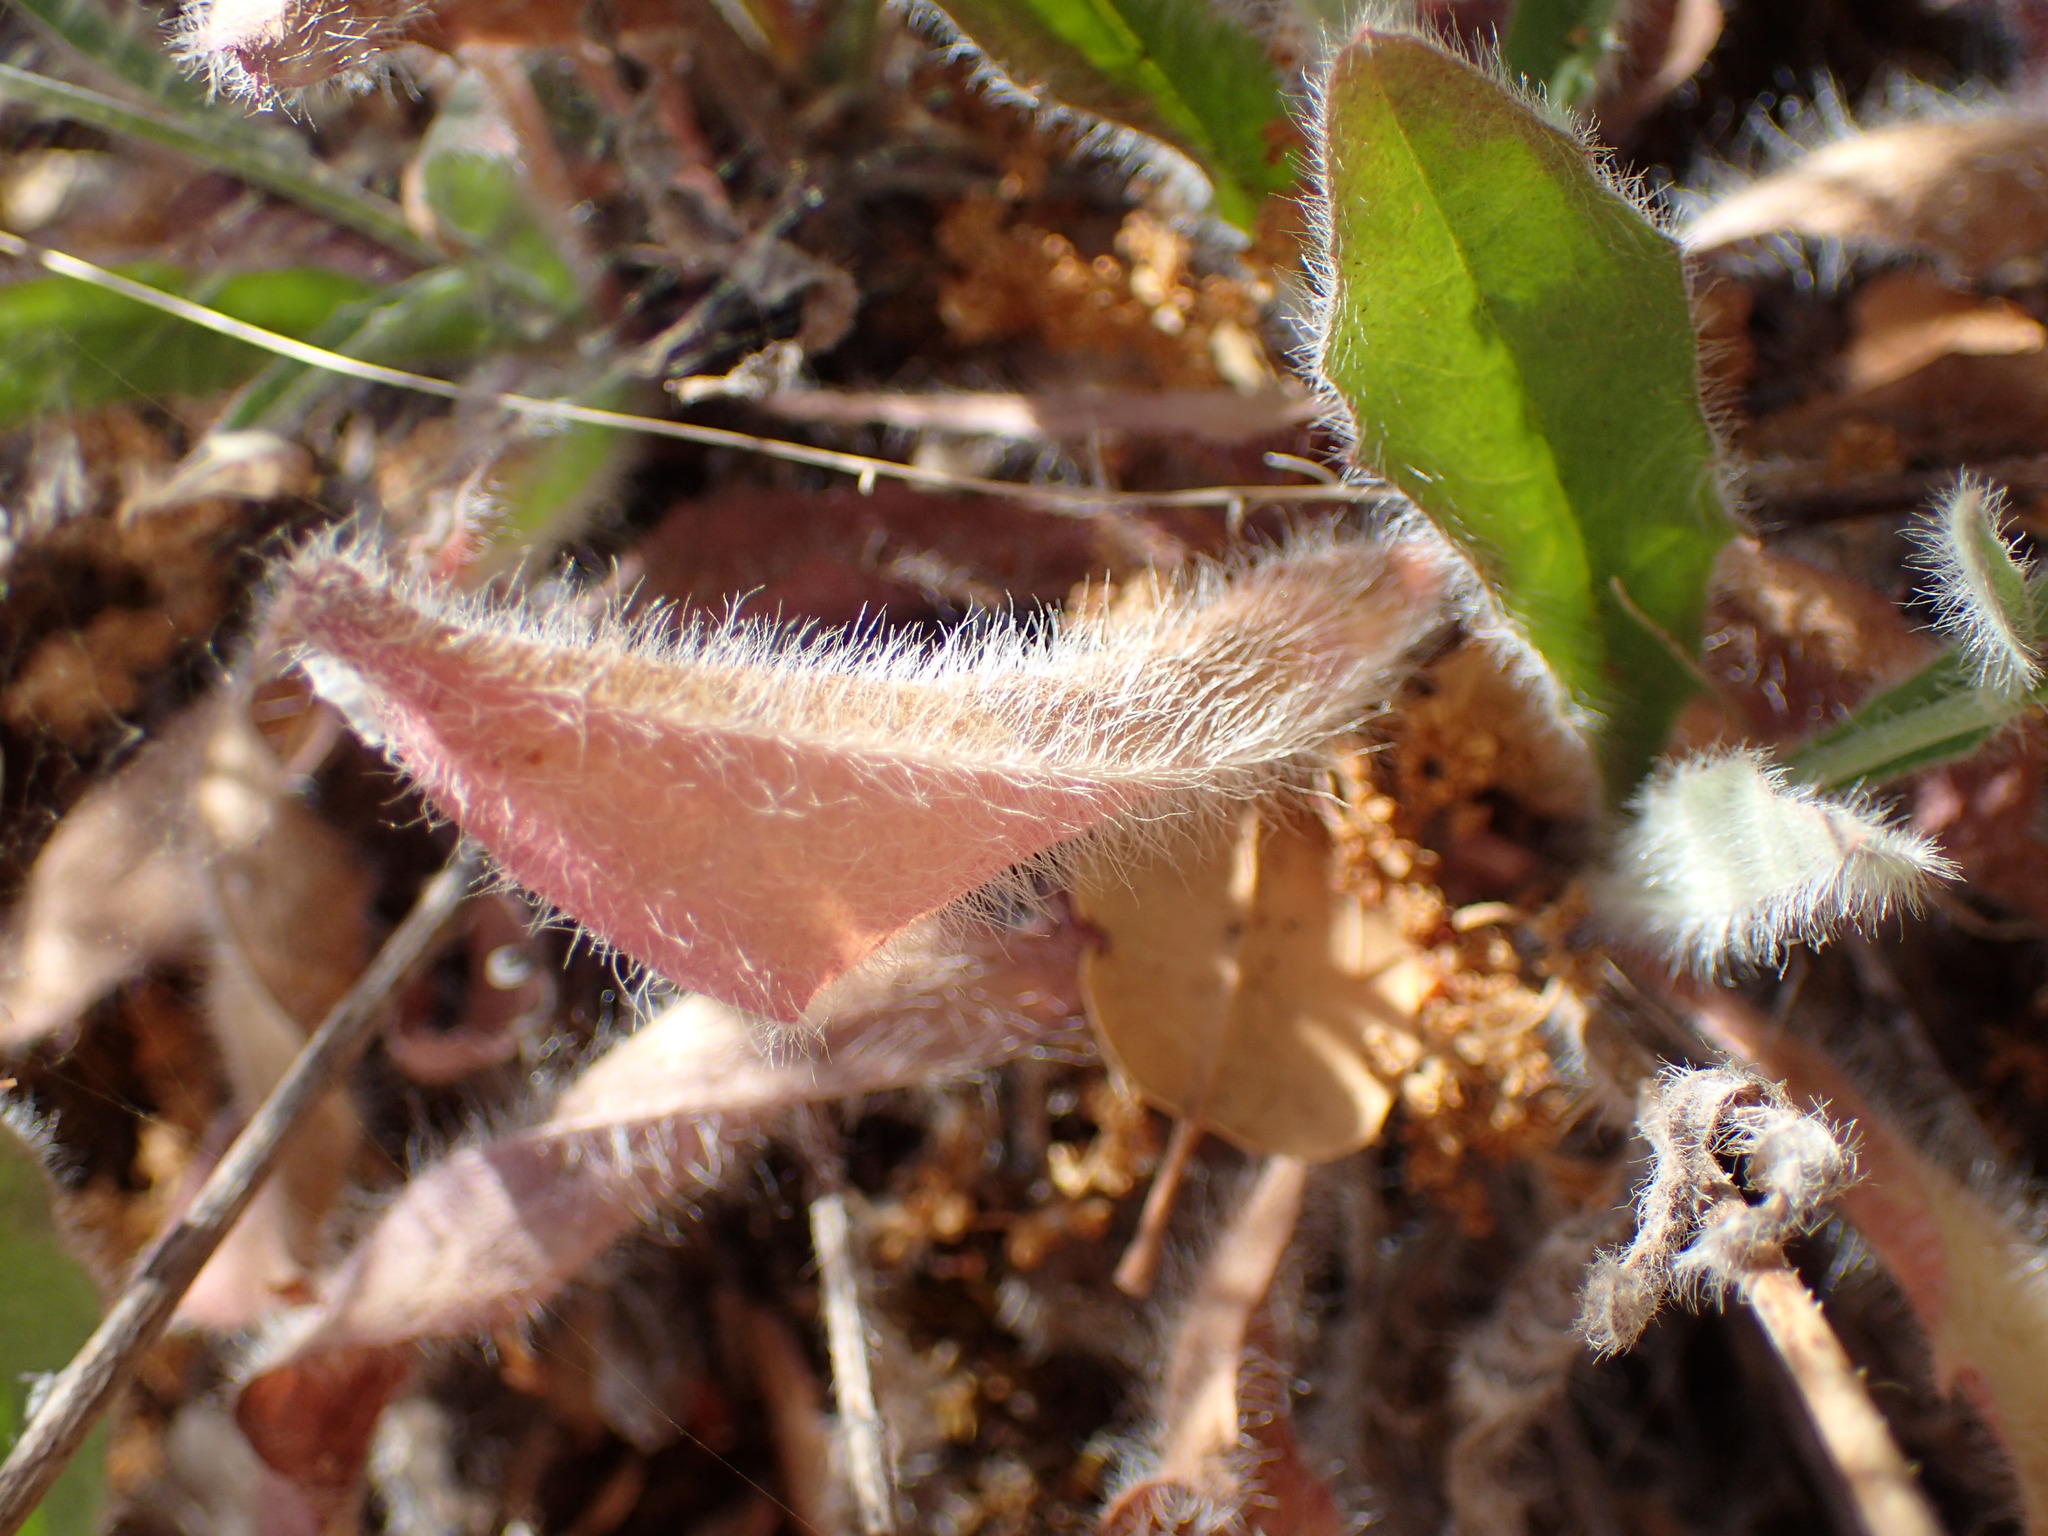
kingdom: Plantae
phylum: Tracheophyta
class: Magnoliopsida
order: Asterales
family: Asteraceae
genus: Hieracium
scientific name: Hieracium argutum
